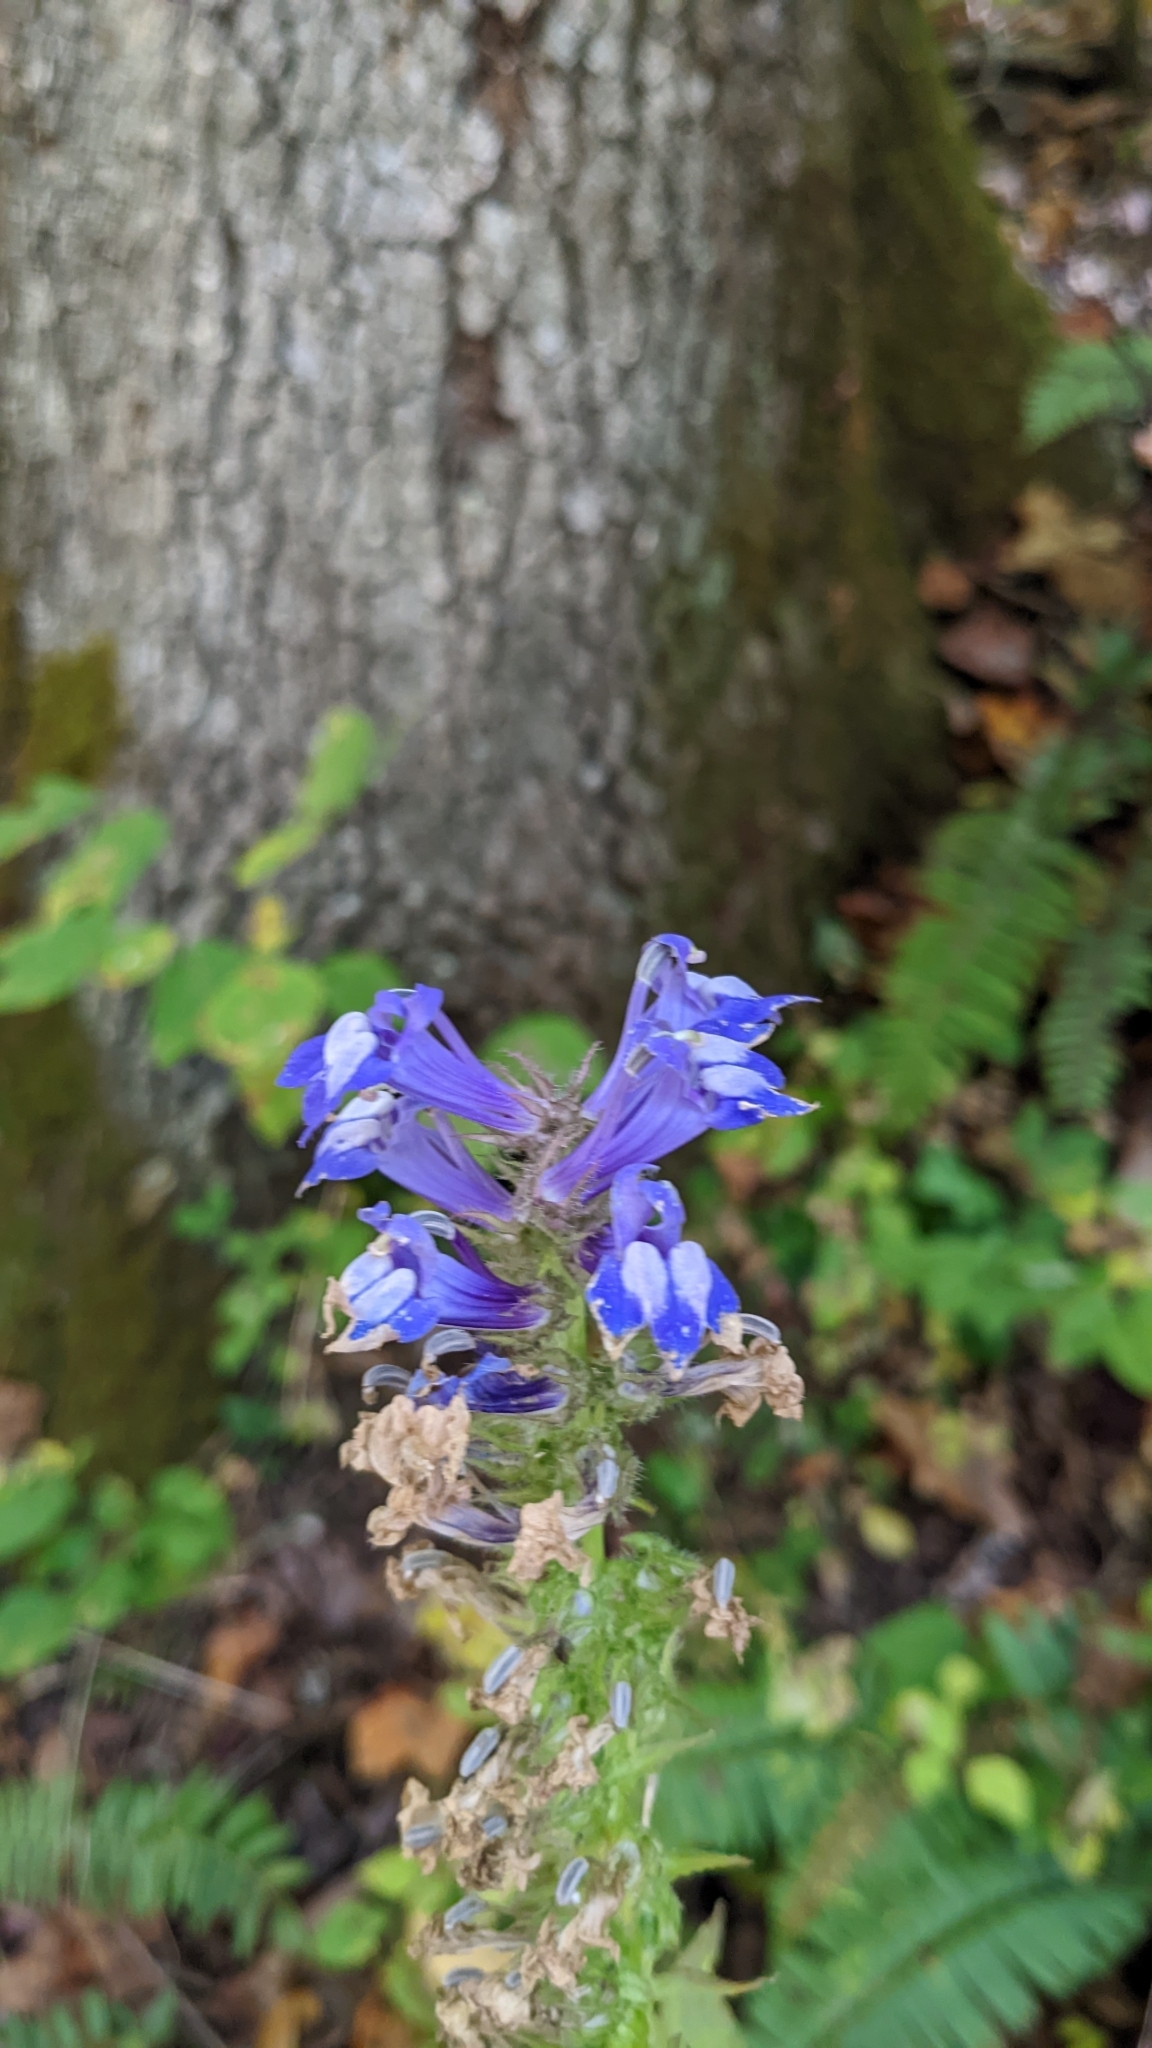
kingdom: Plantae
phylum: Tracheophyta
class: Magnoliopsida
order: Asterales
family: Campanulaceae
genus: Lobelia
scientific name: Lobelia siphilitica
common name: Great lobelia
